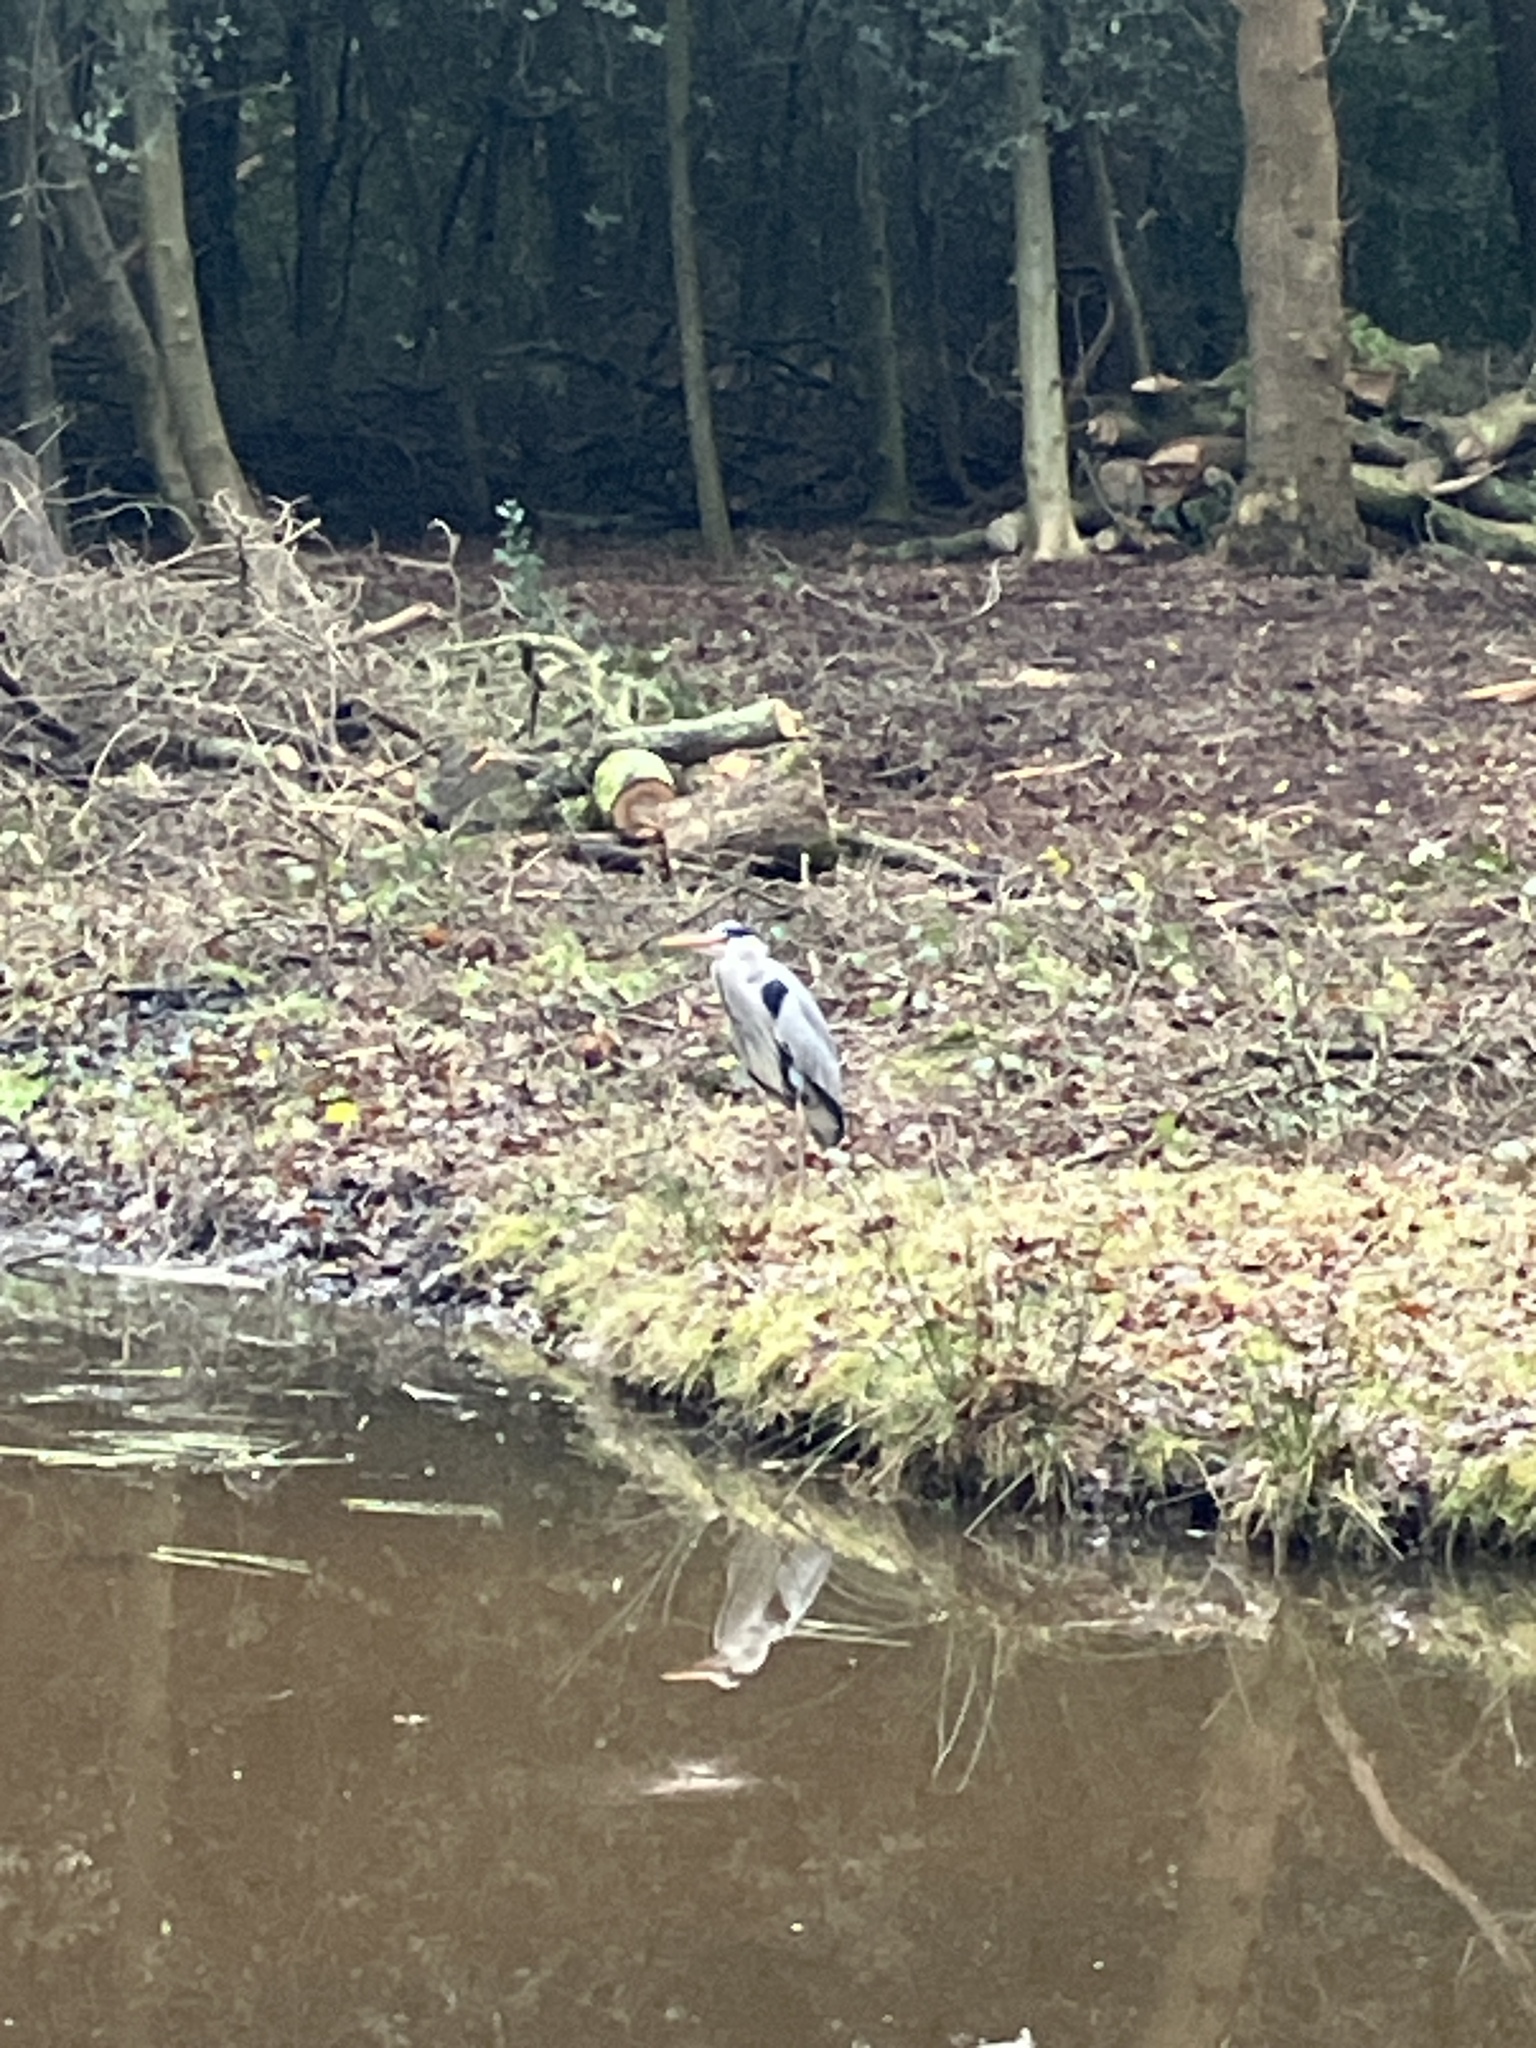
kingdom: Animalia
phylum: Chordata
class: Aves
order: Pelecaniformes
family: Ardeidae
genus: Ardea
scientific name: Ardea cinerea
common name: Grey heron
